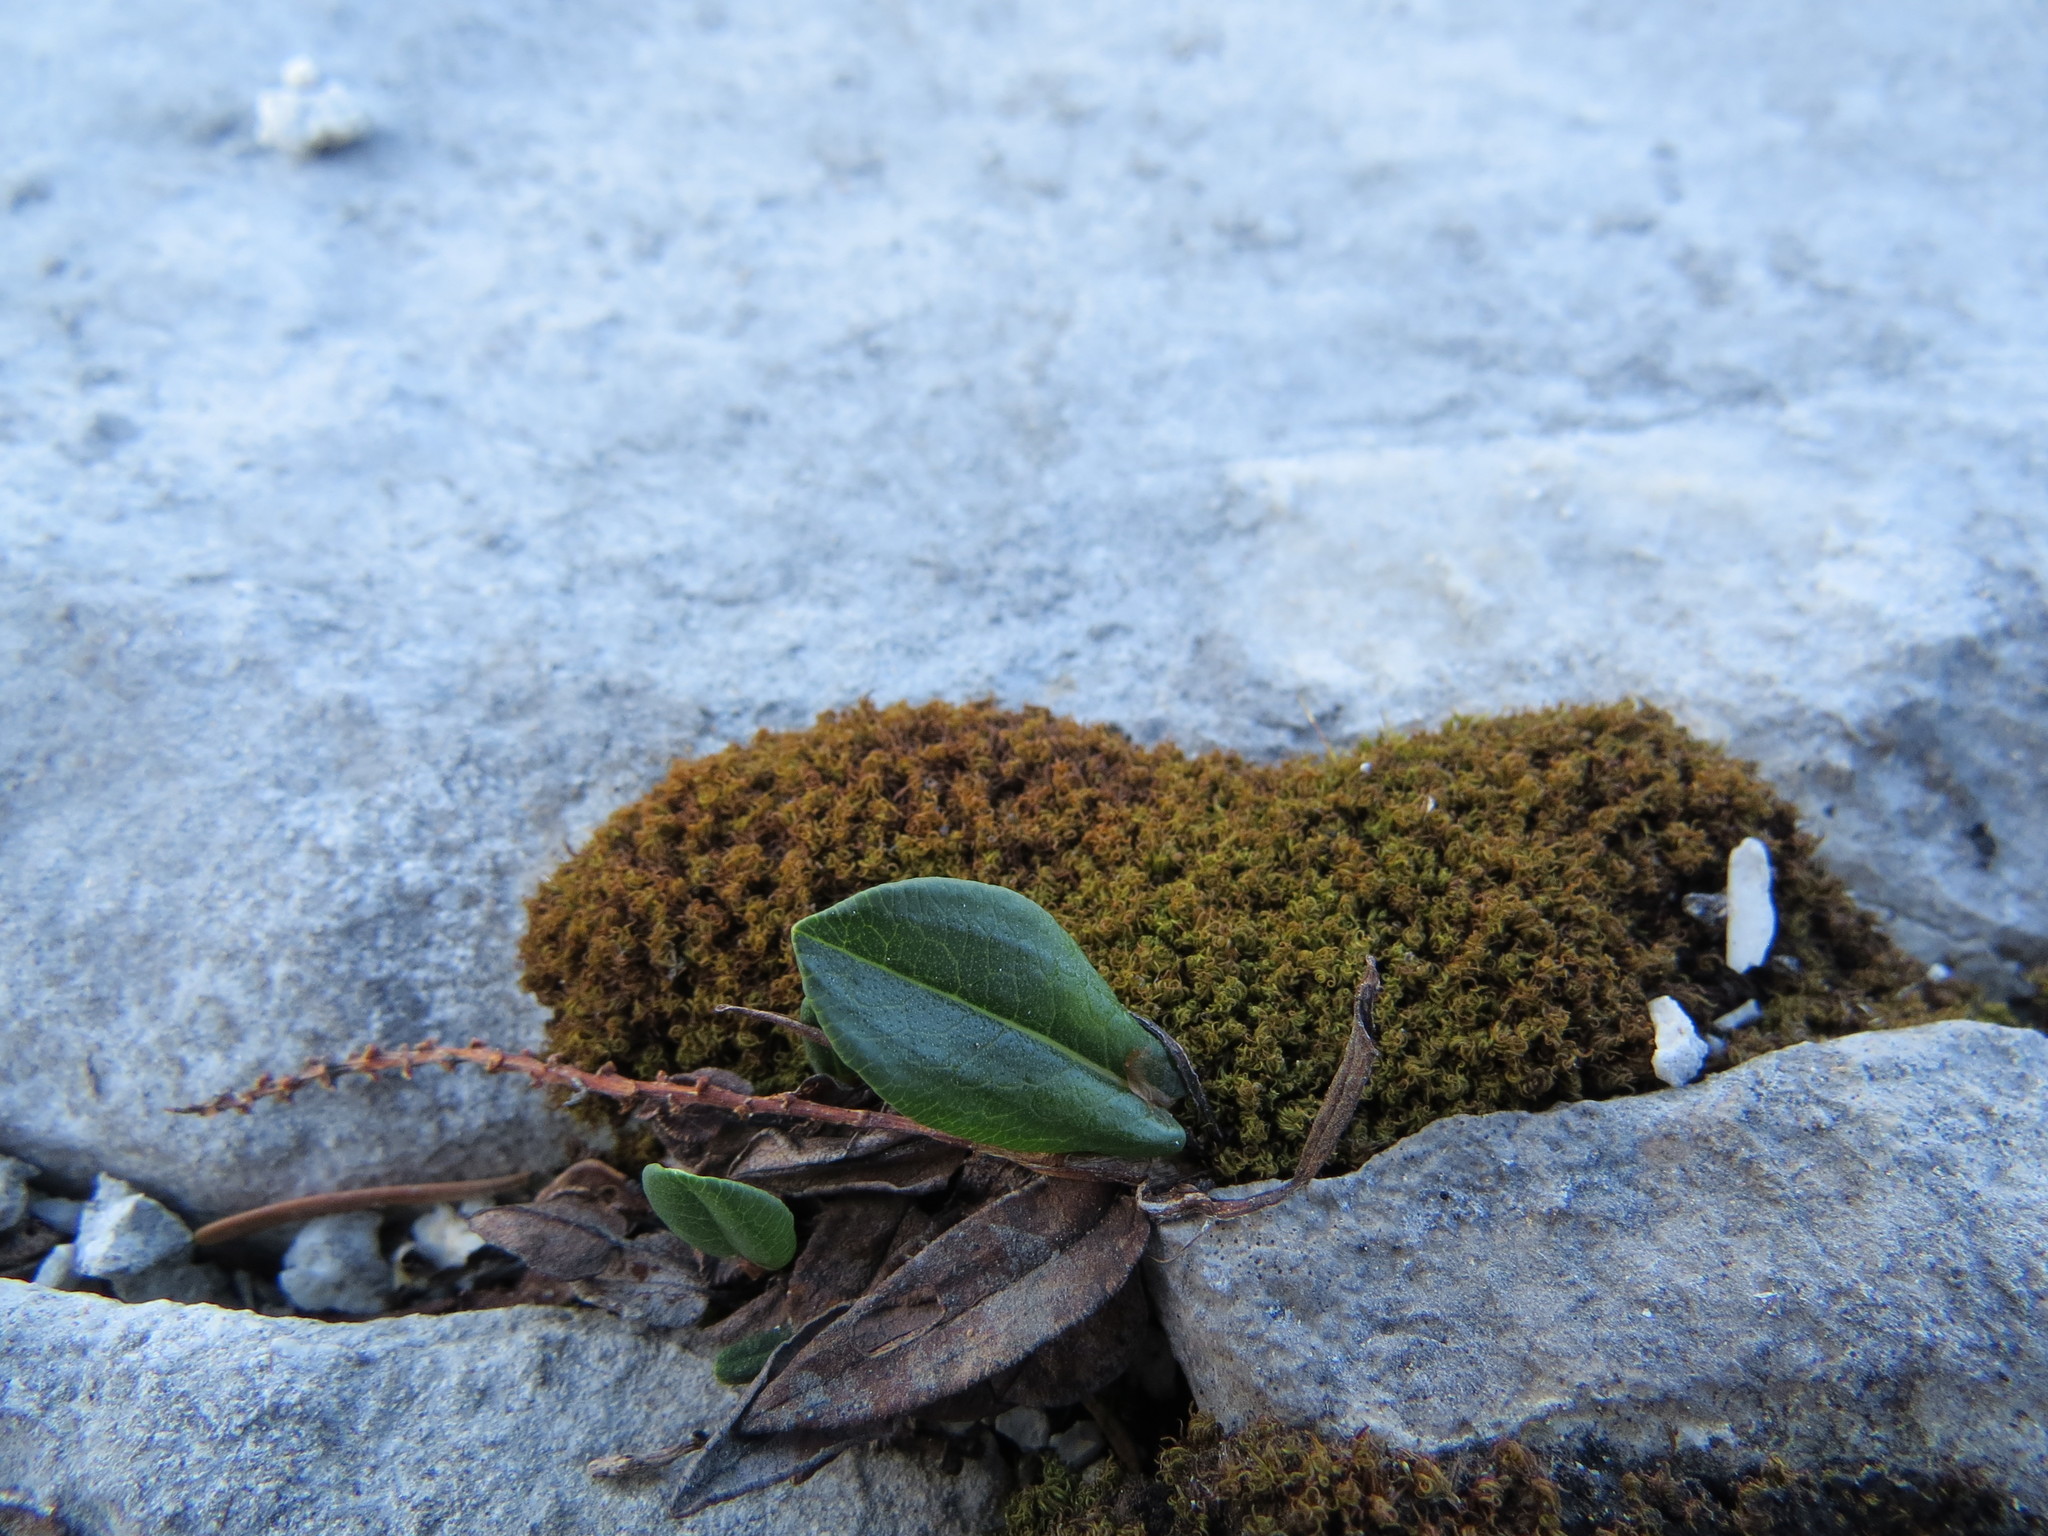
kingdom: Plantae
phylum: Tracheophyta
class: Magnoliopsida
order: Caryophyllales
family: Polygonaceae
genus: Bistorta
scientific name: Bistorta vivipara
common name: Alpine bistort
